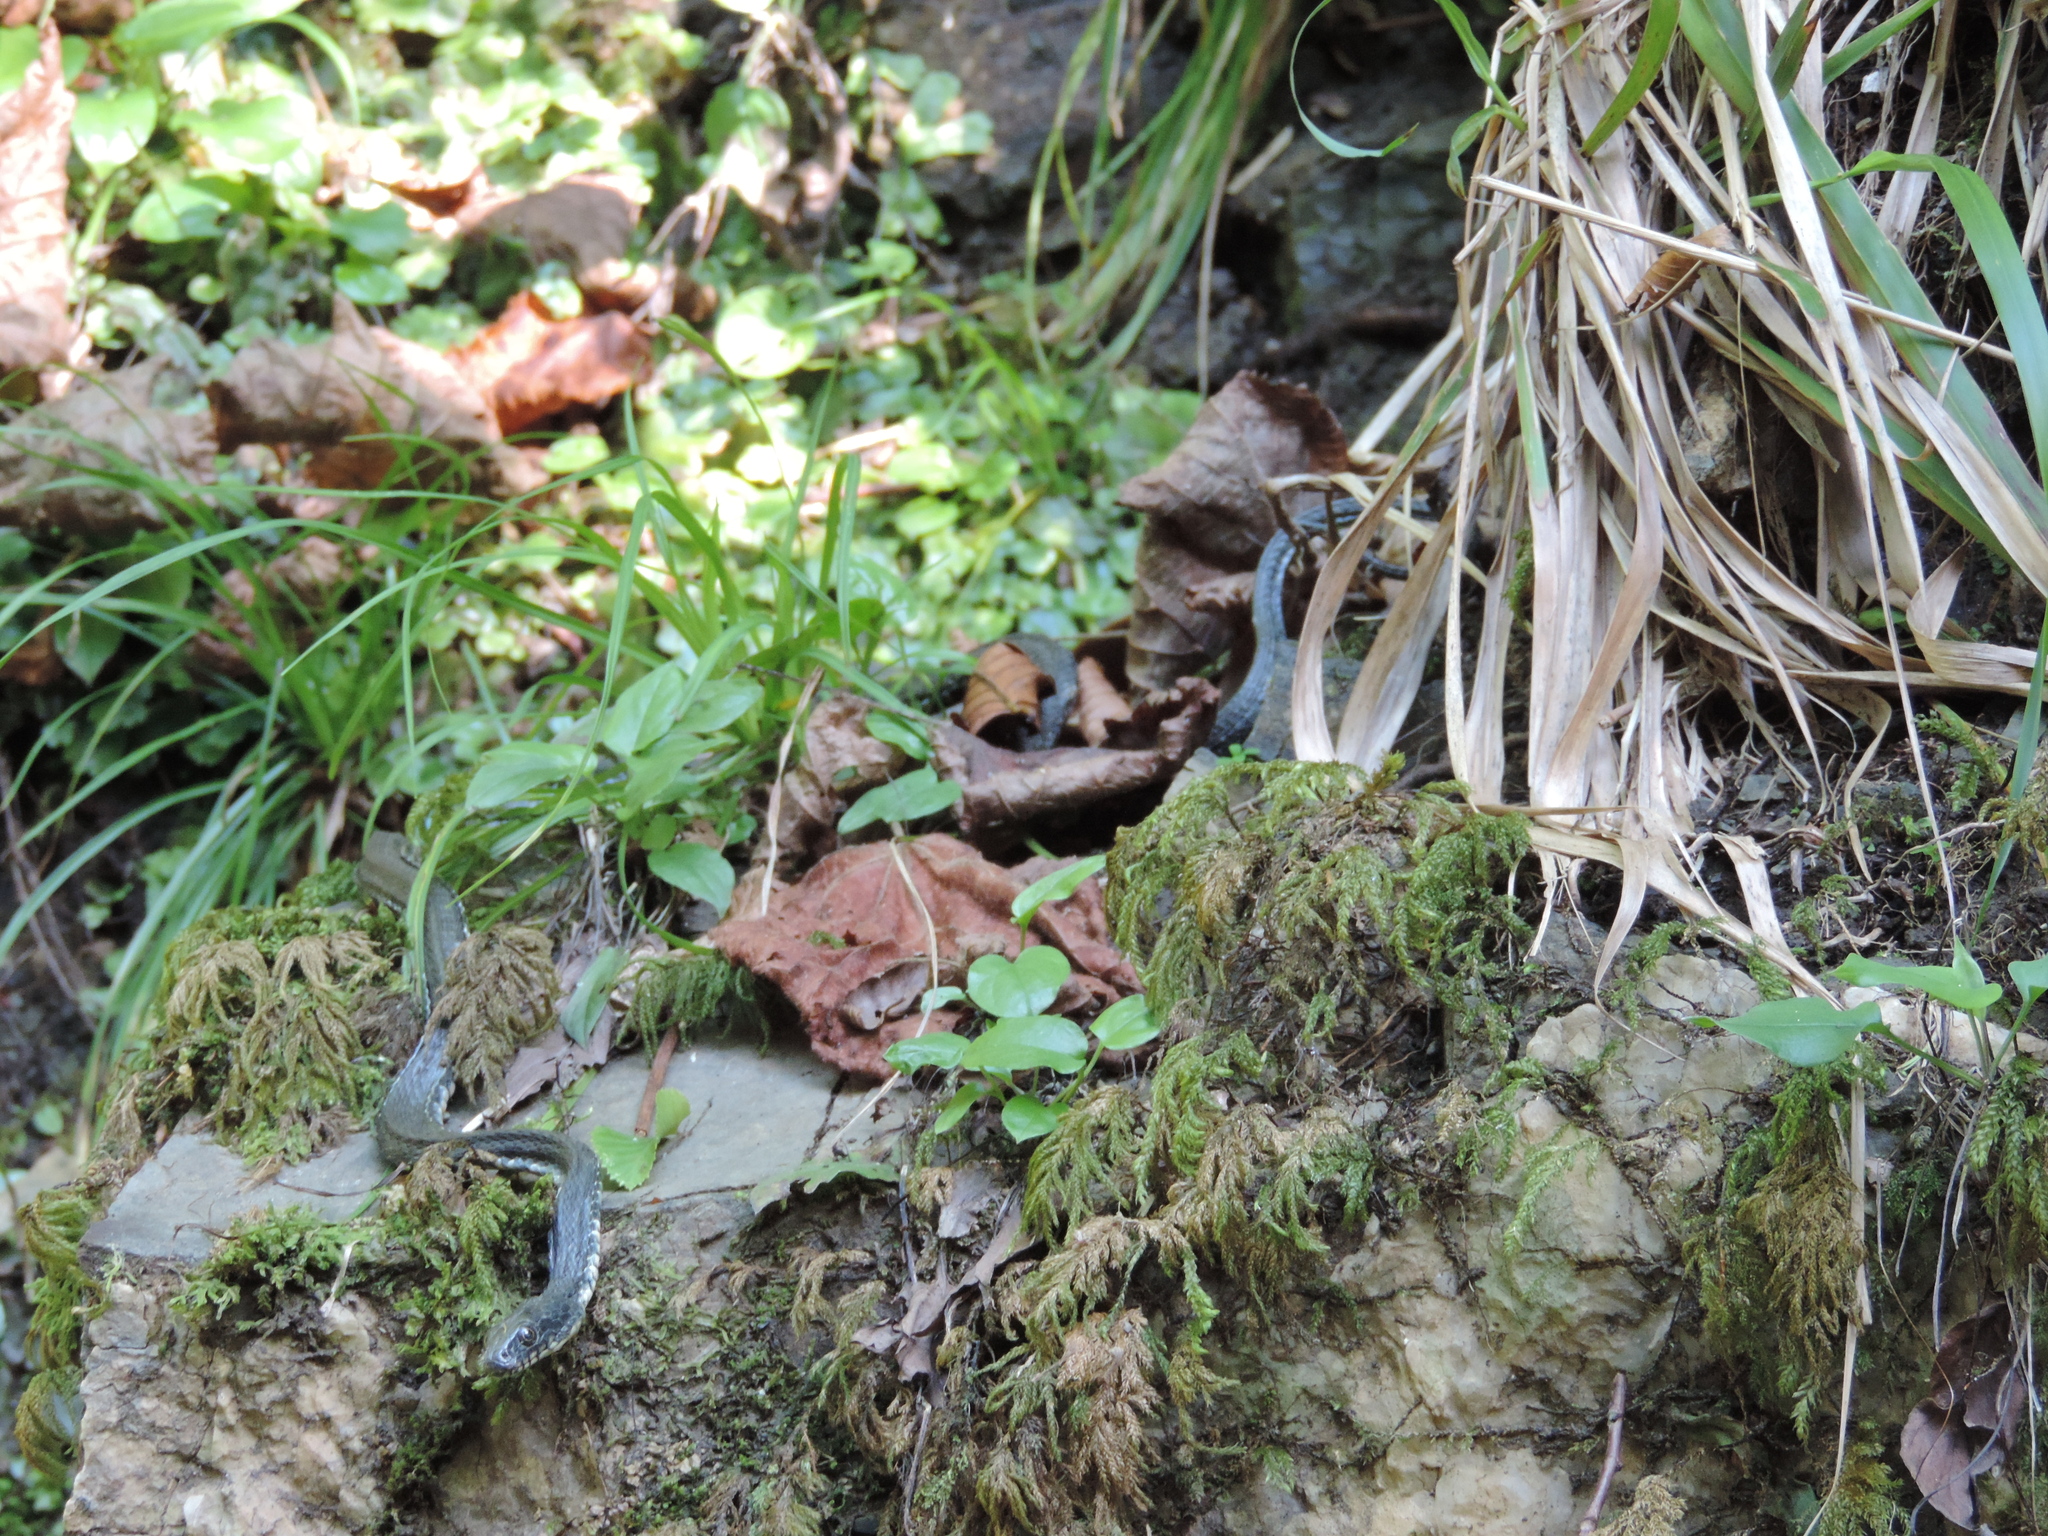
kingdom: Animalia
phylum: Chordata
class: Squamata
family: Colubridae
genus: Natrix
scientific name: Natrix tessellata
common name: Dice snake
